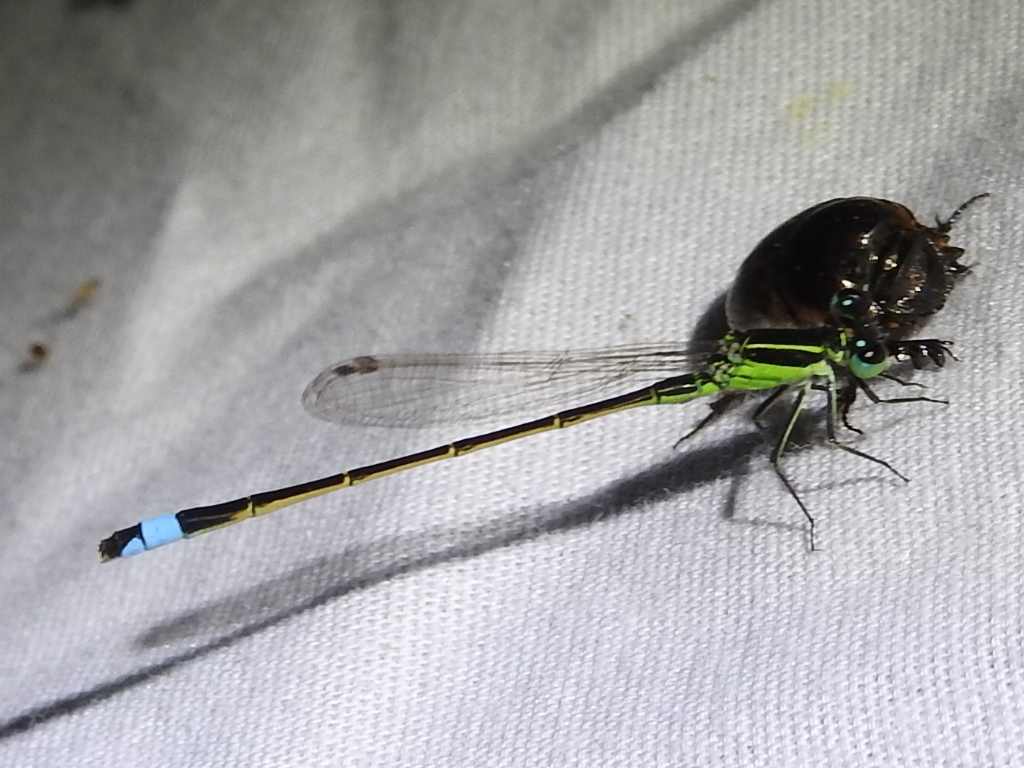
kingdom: Animalia
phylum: Arthropoda
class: Insecta
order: Odonata
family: Coenagrionidae
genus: Ischnura
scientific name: Ischnura ramburii
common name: Rambur's forktail
